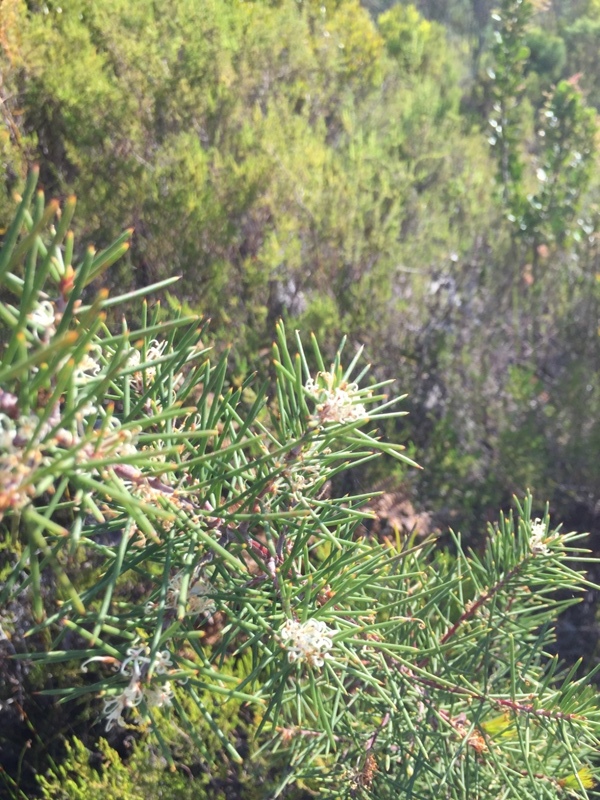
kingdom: Plantae
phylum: Tracheophyta
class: Magnoliopsida
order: Proteales
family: Proteaceae
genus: Hakea
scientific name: Hakea sericea
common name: Needle bush
